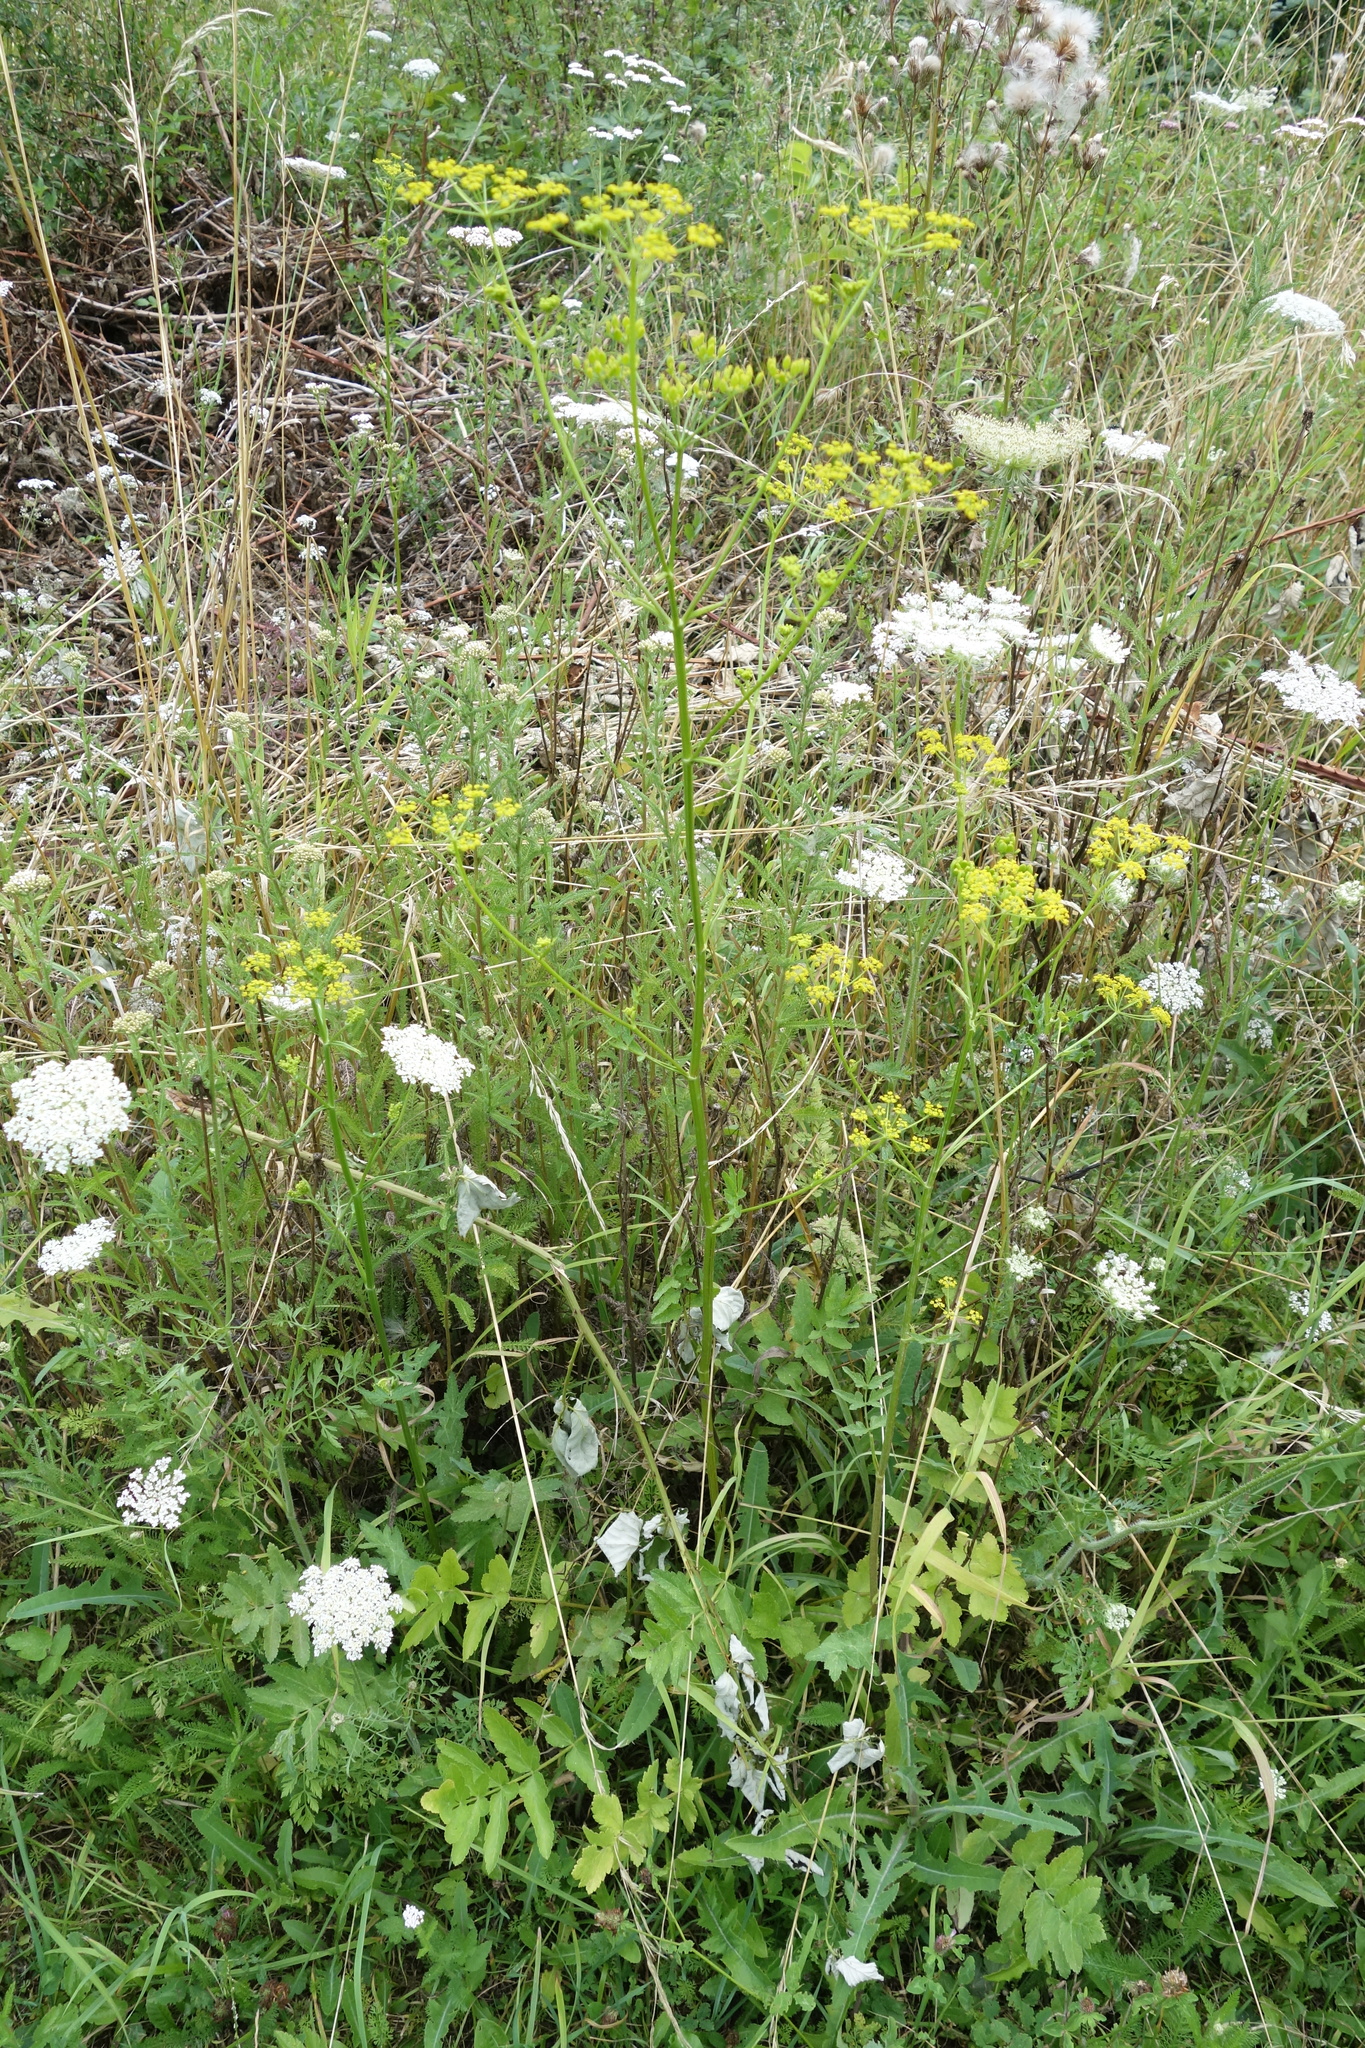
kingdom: Plantae
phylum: Tracheophyta
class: Magnoliopsida
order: Apiales
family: Apiaceae
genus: Pastinaca
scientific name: Pastinaca sativa
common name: Wild parsnip
